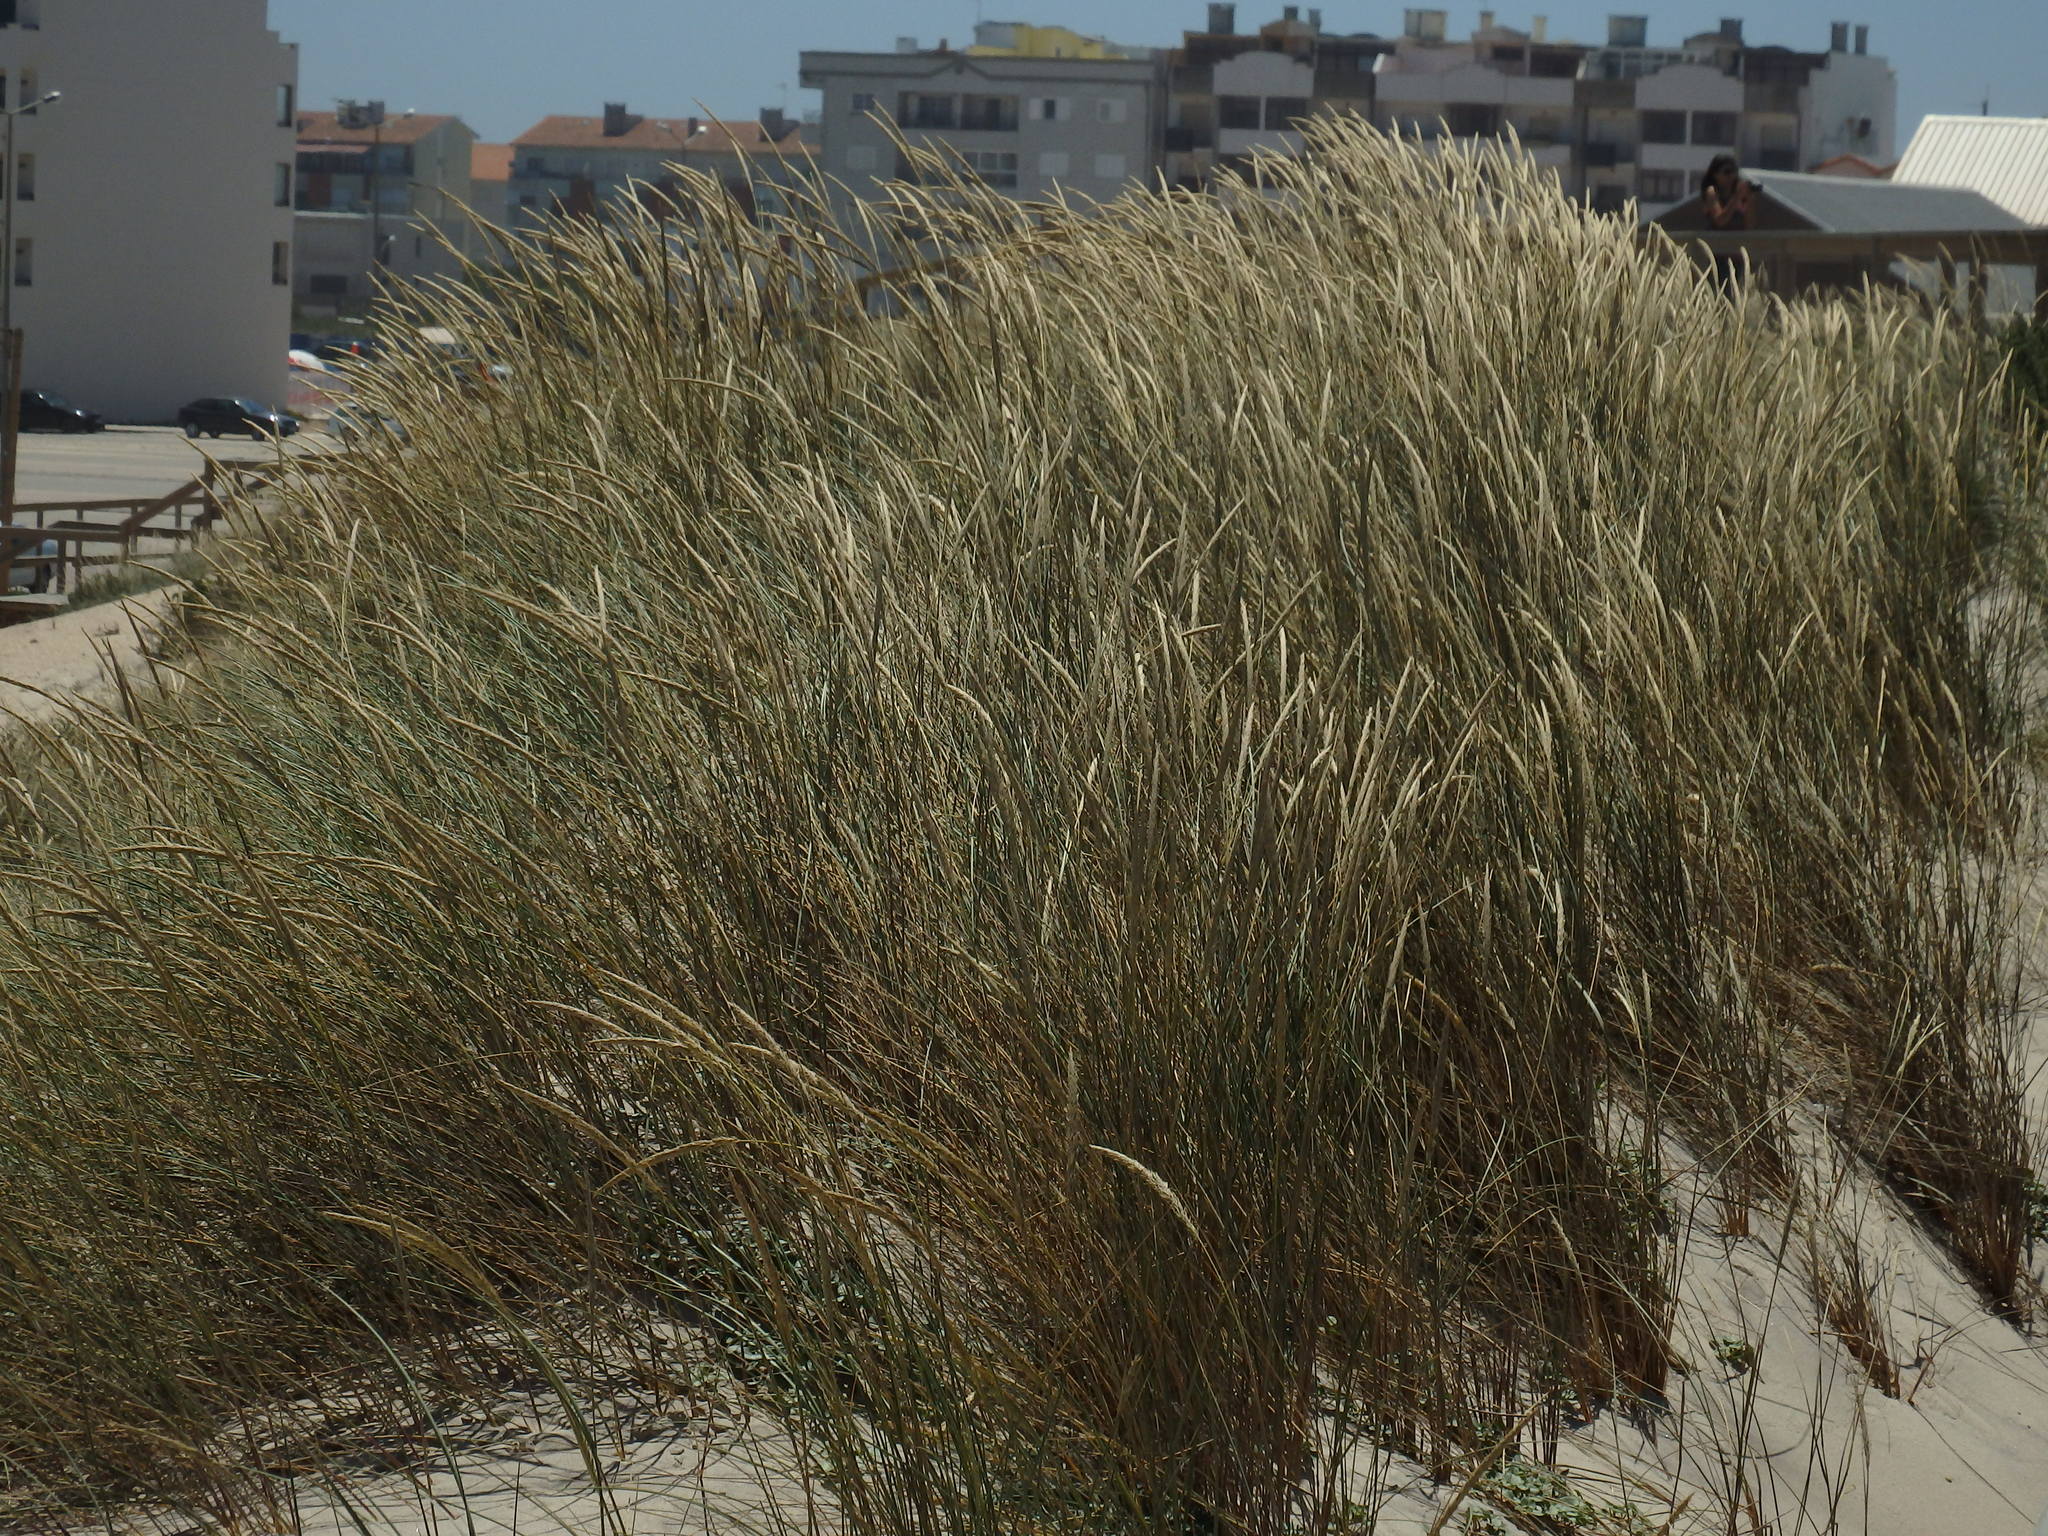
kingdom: Plantae
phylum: Tracheophyta
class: Liliopsida
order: Poales
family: Poaceae
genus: Calamagrostis
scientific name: Calamagrostis arenaria
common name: European beachgrass
